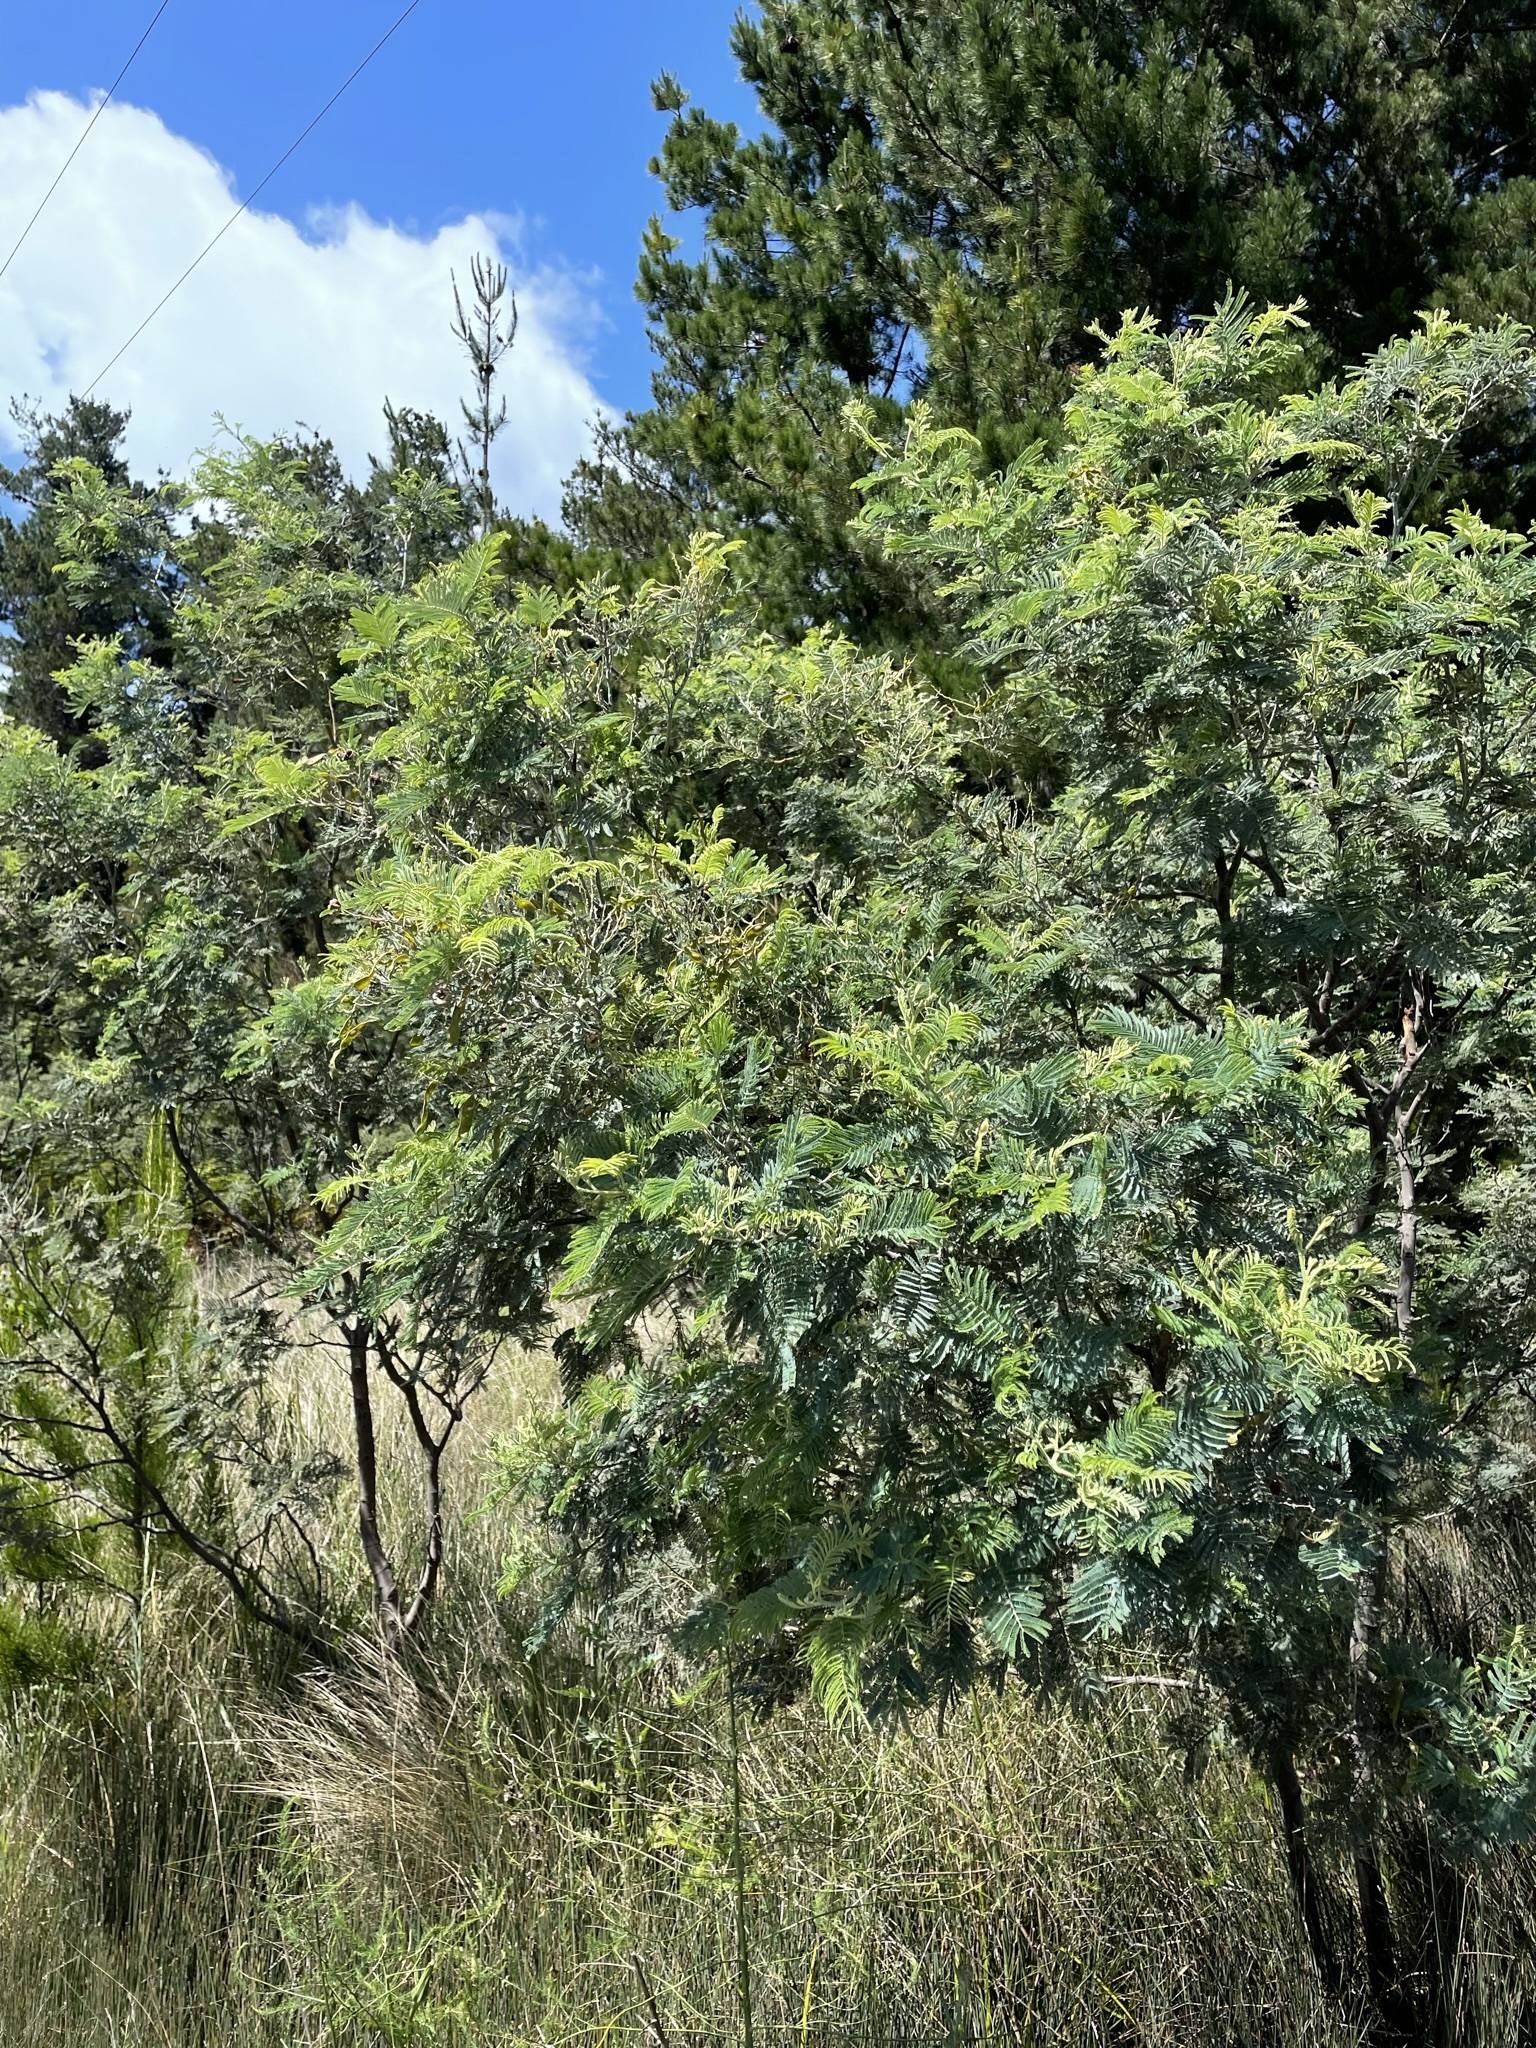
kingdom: Plantae
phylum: Tracheophyta
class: Magnoliopsida
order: Fabales
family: Fabaceae
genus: Acacia
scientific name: Acacia dealbata
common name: Silver wattle
